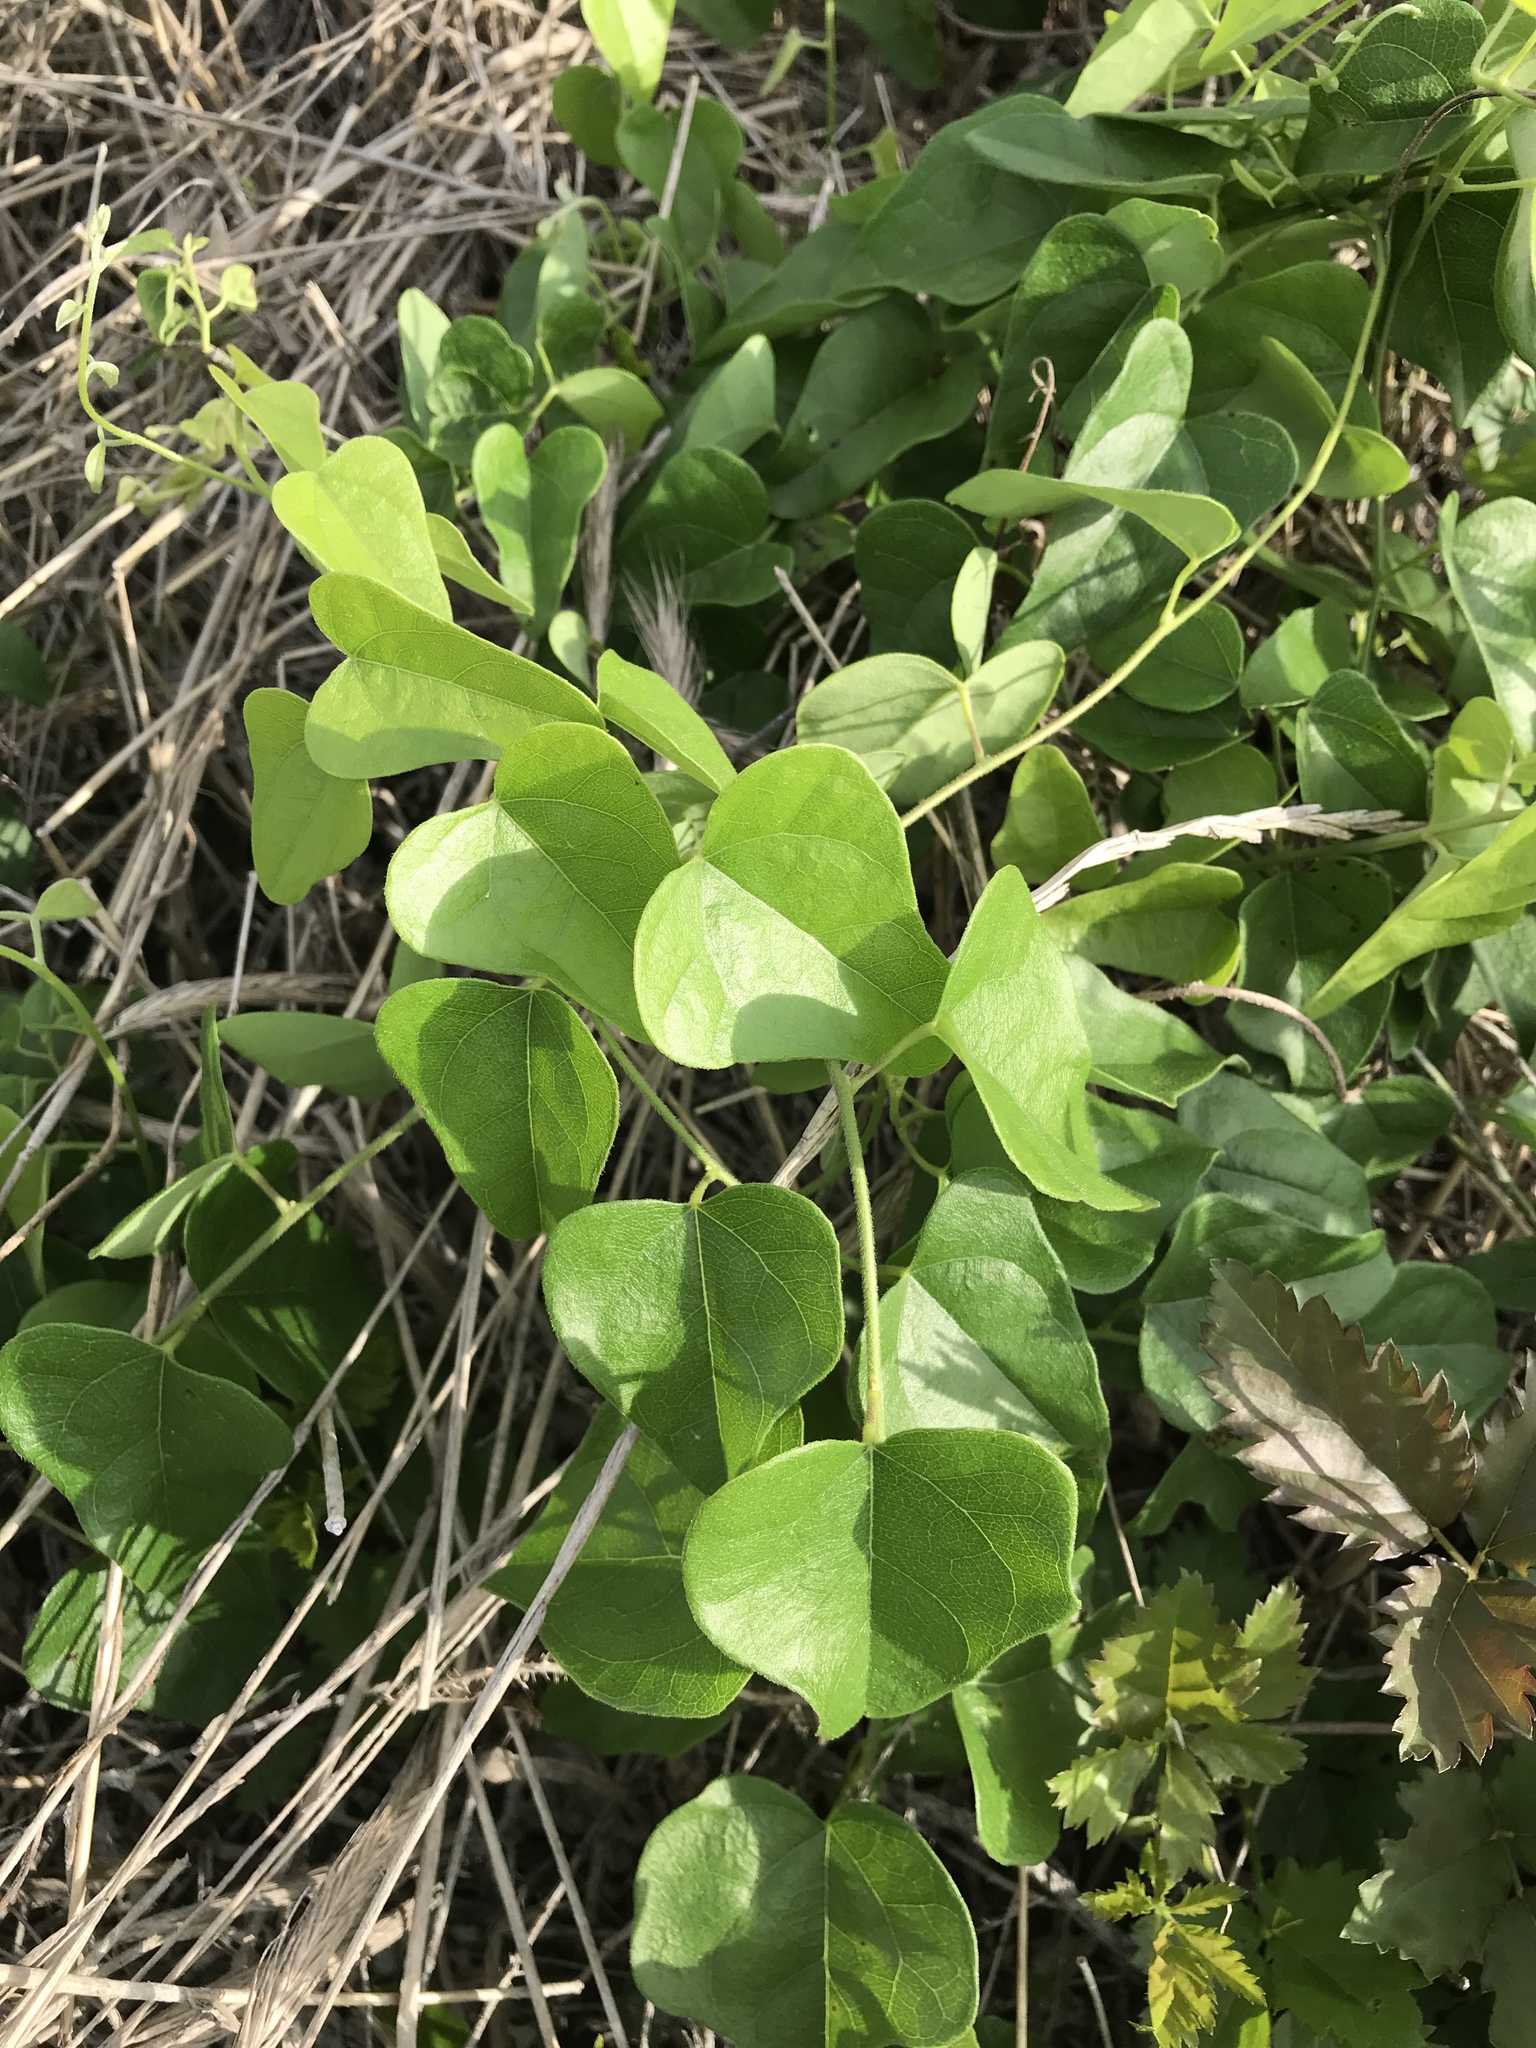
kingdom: Plantae
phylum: Tracheophyta
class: Magnoliopsida
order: Ranunculales
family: Menispermaceae
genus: Cocculus
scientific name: Cocculus carolinus
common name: Carolina moonseed
